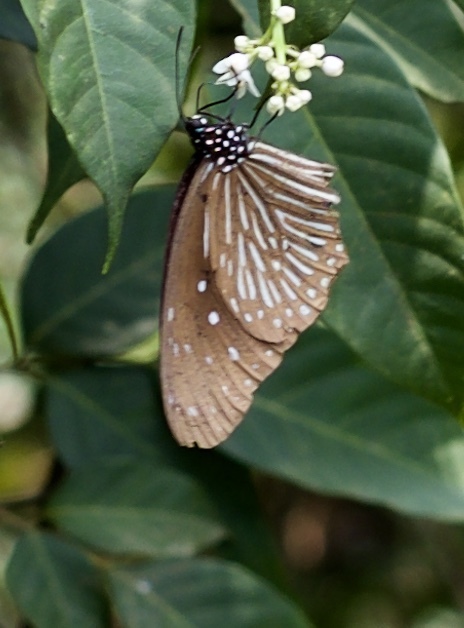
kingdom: Animalia
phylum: Arthropoda
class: Insecta
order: Lepidoptera
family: Nymphalidae
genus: Euploea
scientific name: Euploea mulciber
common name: Striped blue crow butterfly
